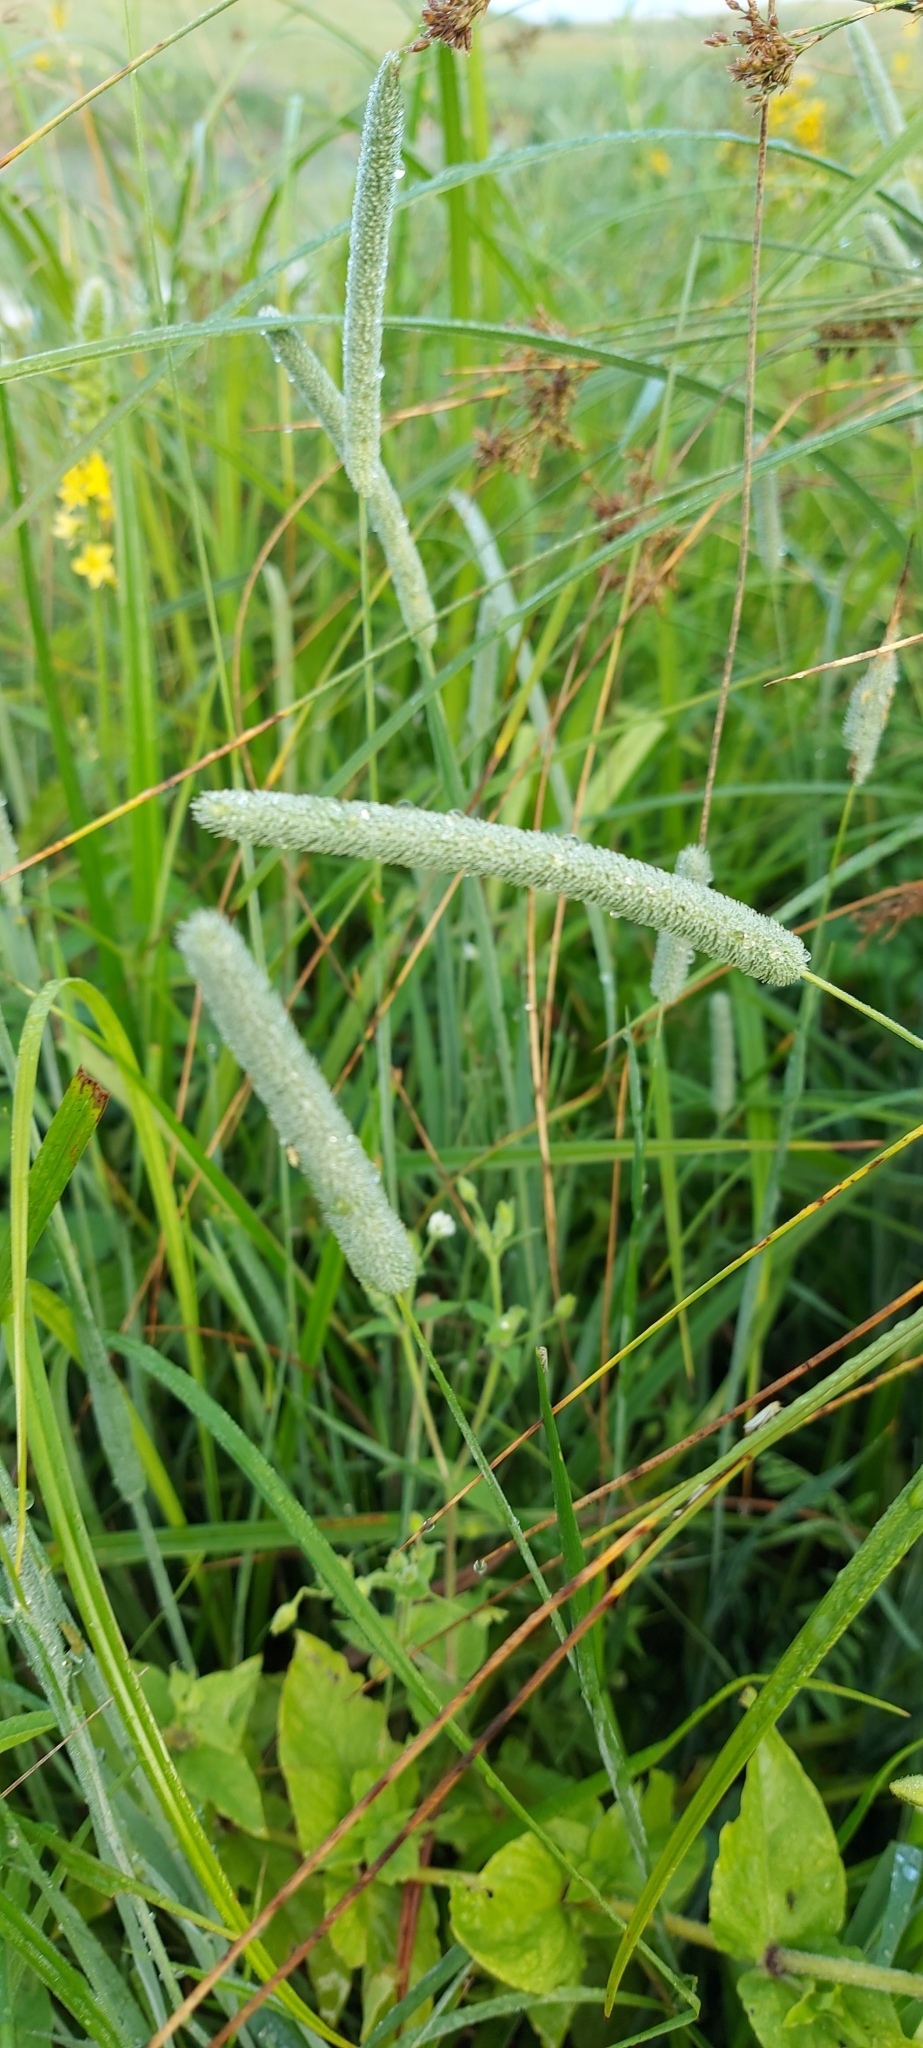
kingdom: Plantae
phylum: Tracheophyta
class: Liliopsida
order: Poales
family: Poaceae
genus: Phleum
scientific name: Phleum pratense
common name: Timothy grass
